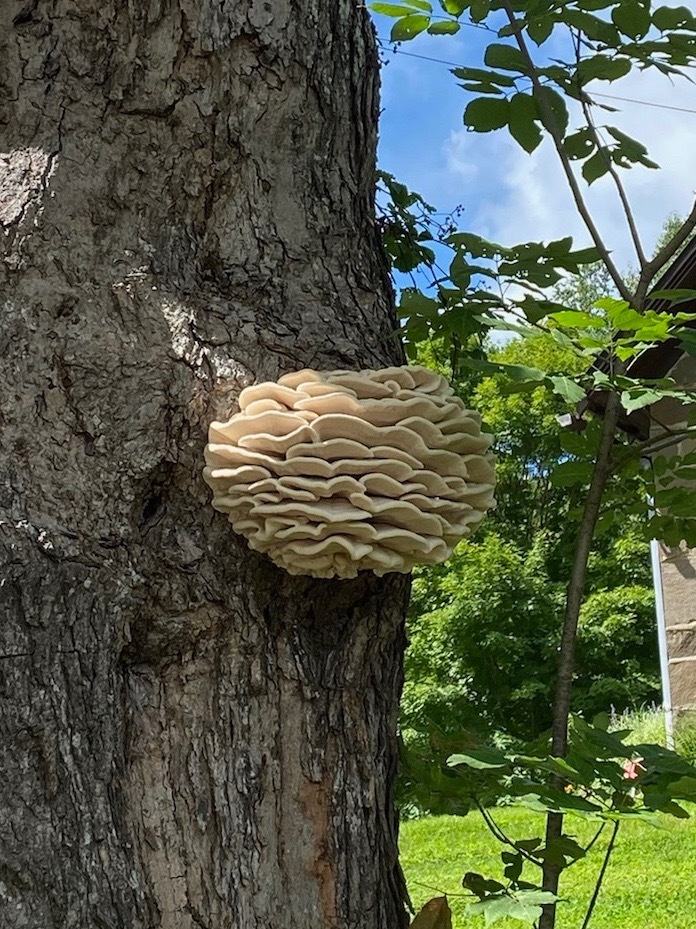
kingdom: Fungi
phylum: Basidiomycota
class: Agaricomycetes
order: Polyporales
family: Meruliaceae
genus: Climacodon
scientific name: Climacodon septentrionalis
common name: Northern tooth
